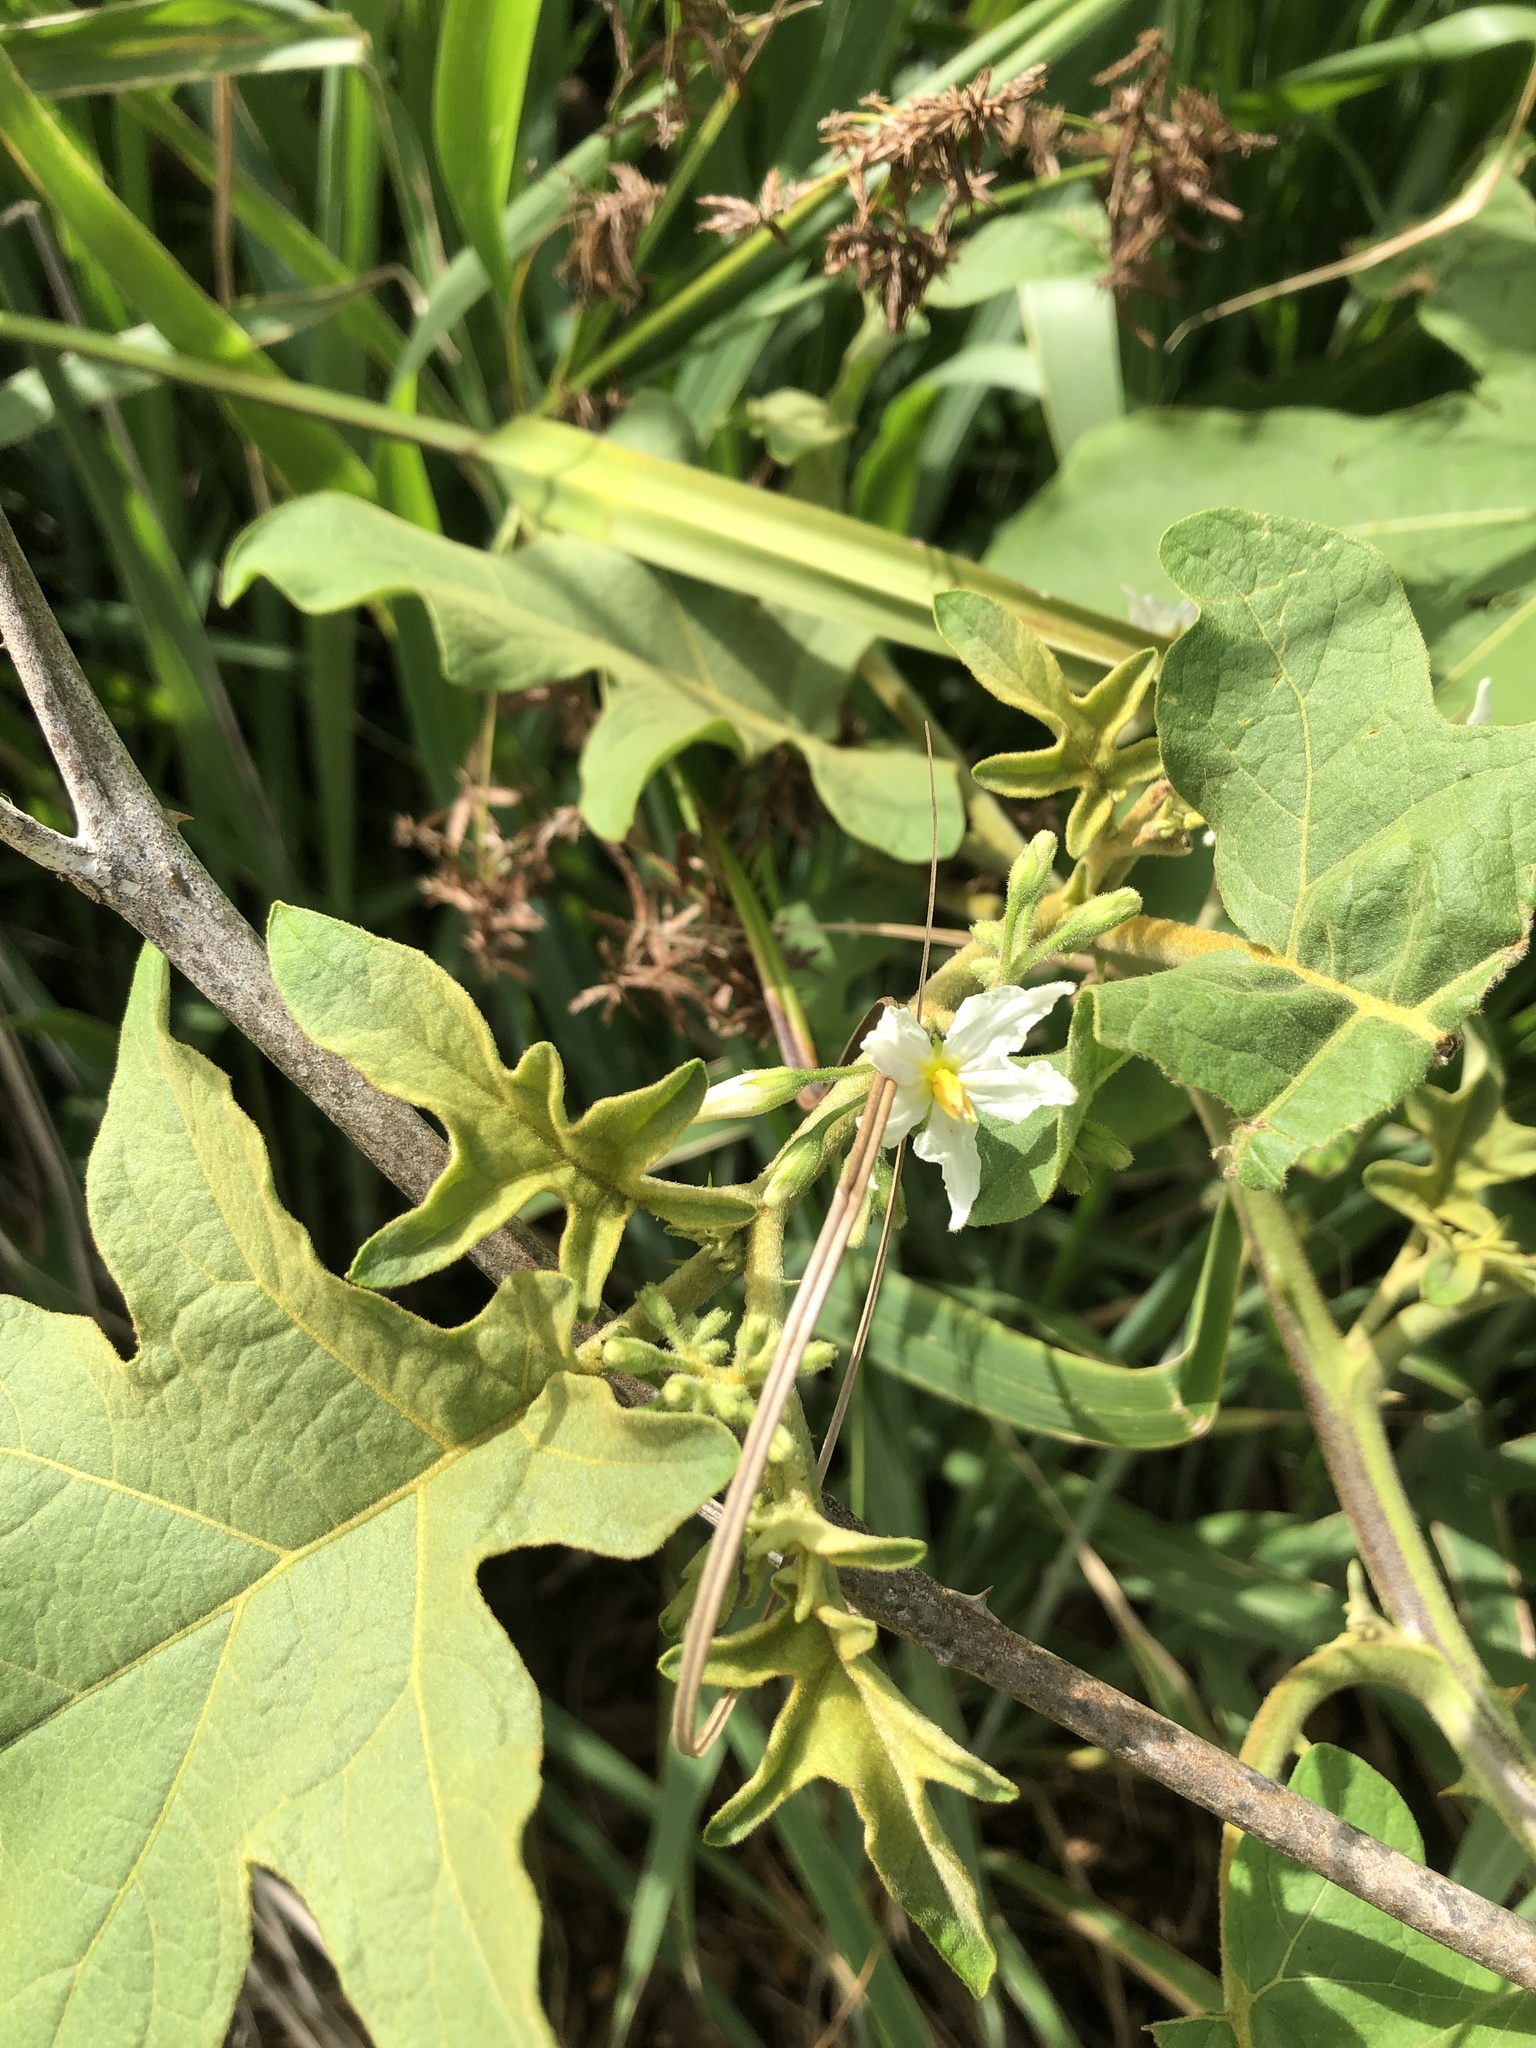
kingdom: Plantae
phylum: Tracheophyta
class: Magnoliopsida
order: Solanales
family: Solanaceae
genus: Solanum
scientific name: Solanum torvum
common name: Turkey berry
